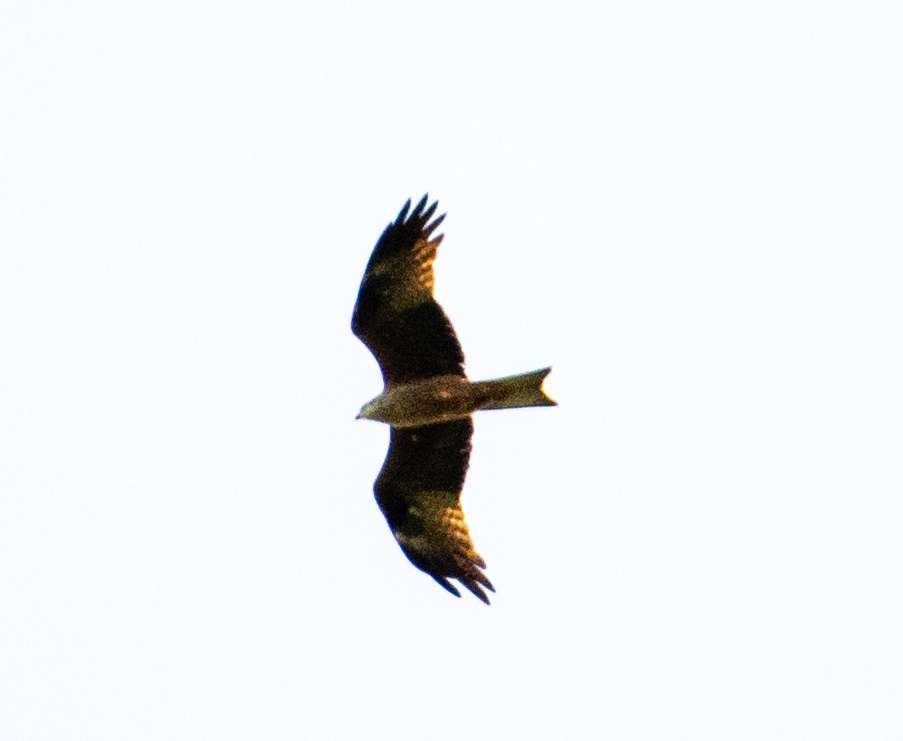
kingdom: Animalia
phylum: Chordata
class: Aves
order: Accipitriformes
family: Accipitridae
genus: Milvus
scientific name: Milvus milvus
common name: Red kite
